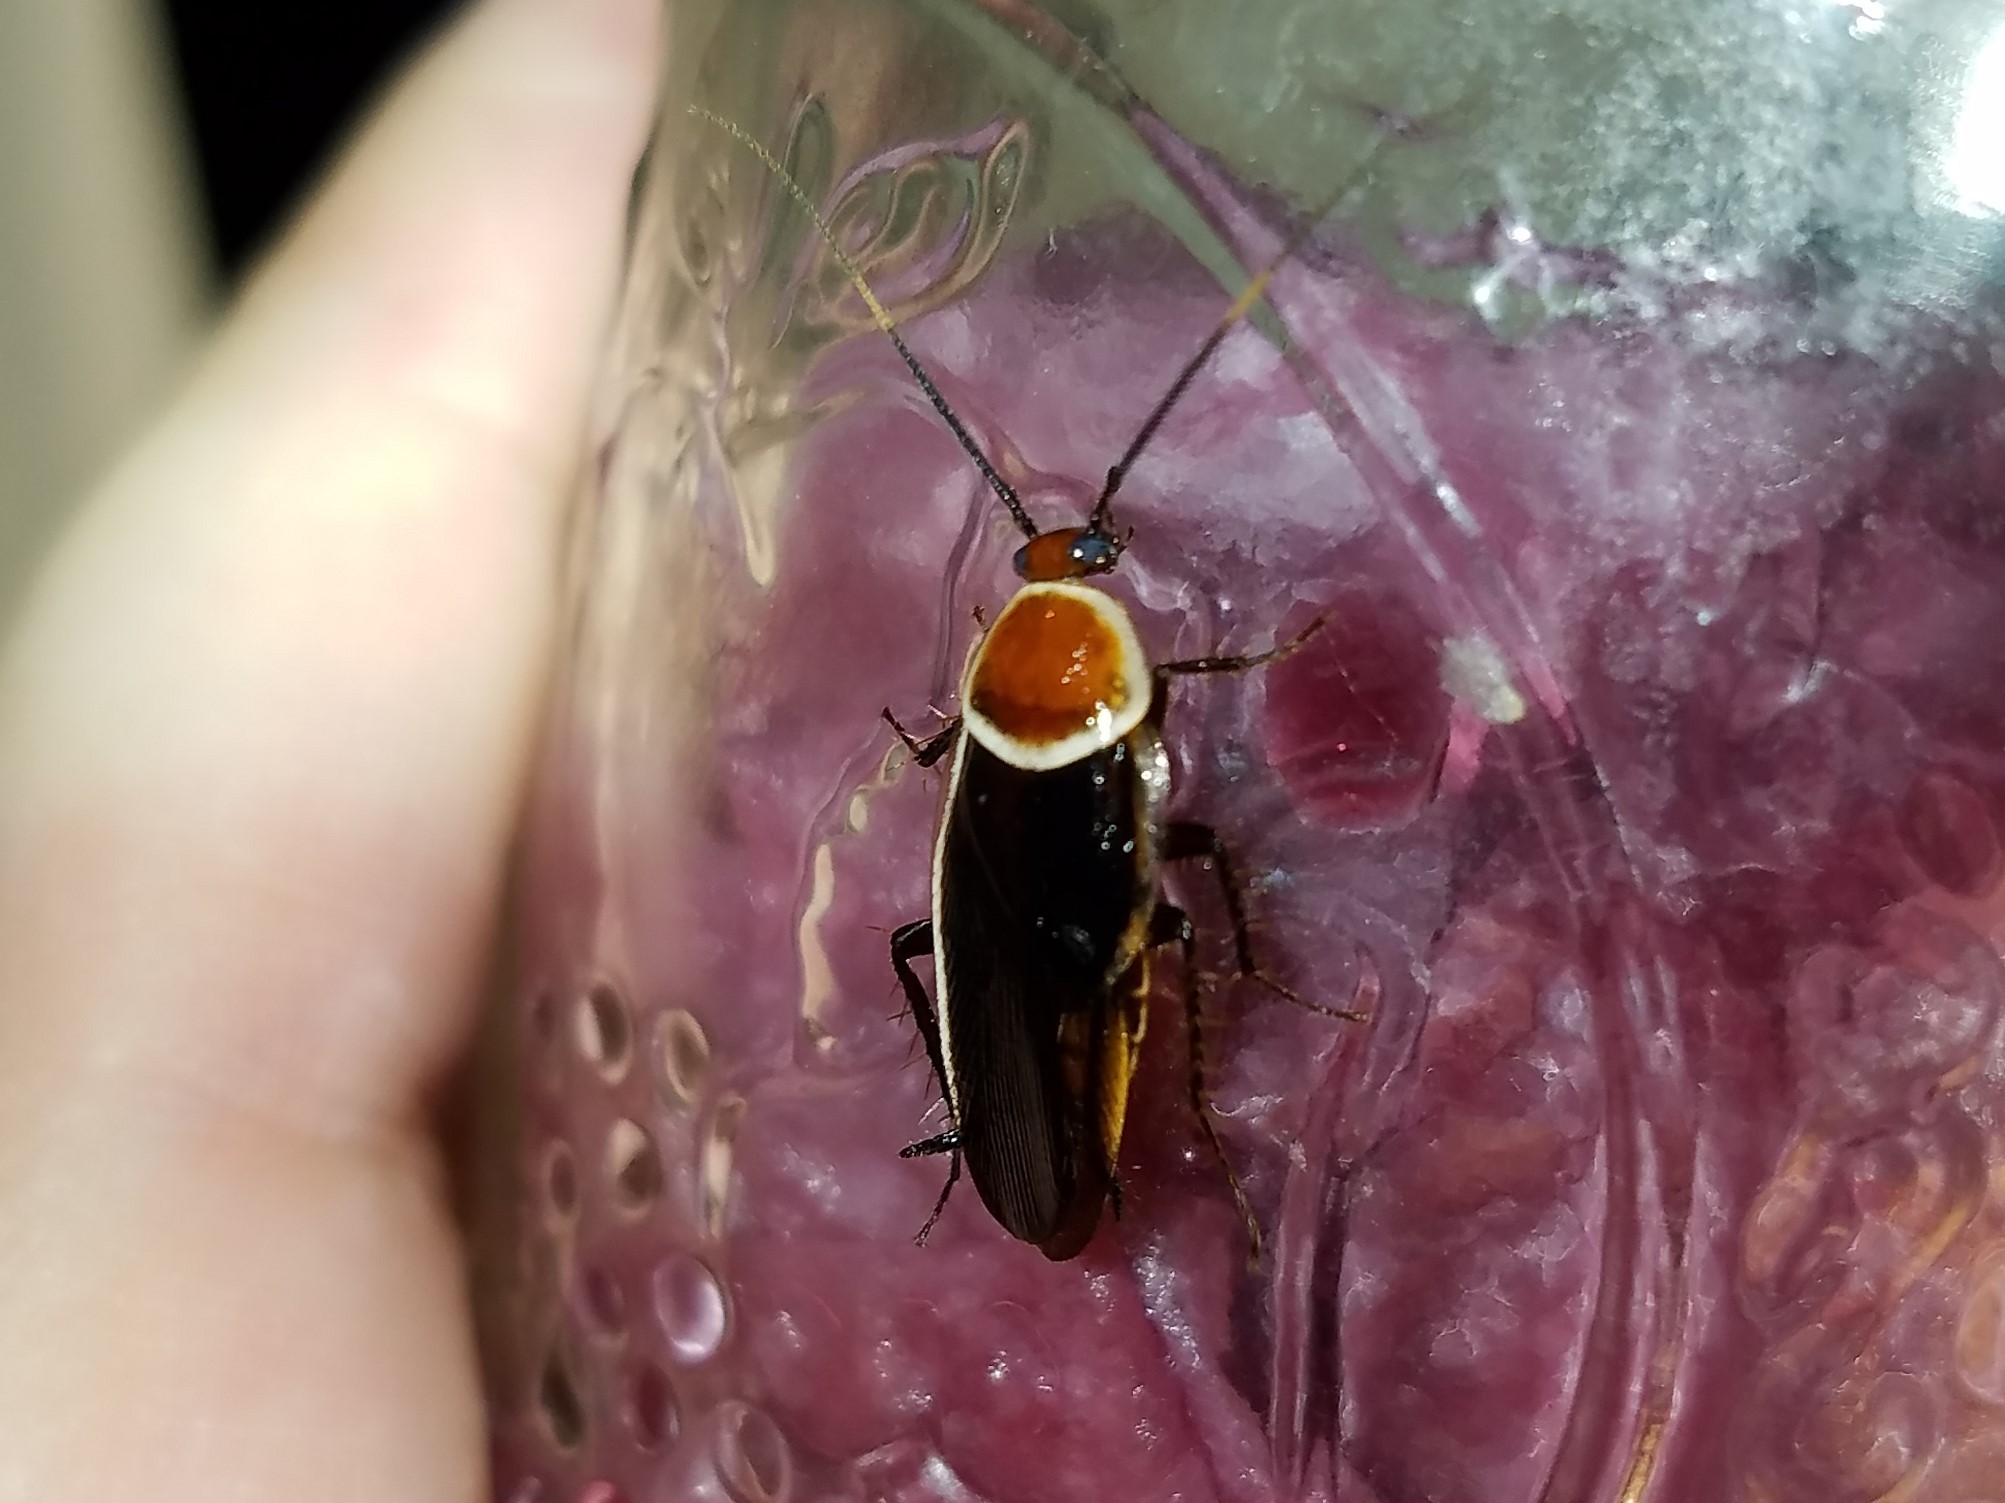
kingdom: Animalia
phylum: Arthropoda
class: Insecta
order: Blattodea
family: Ectobiidae
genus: Pseudomops
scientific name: Pseudomops septentrionalis
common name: Pale-bordered field cockroach
